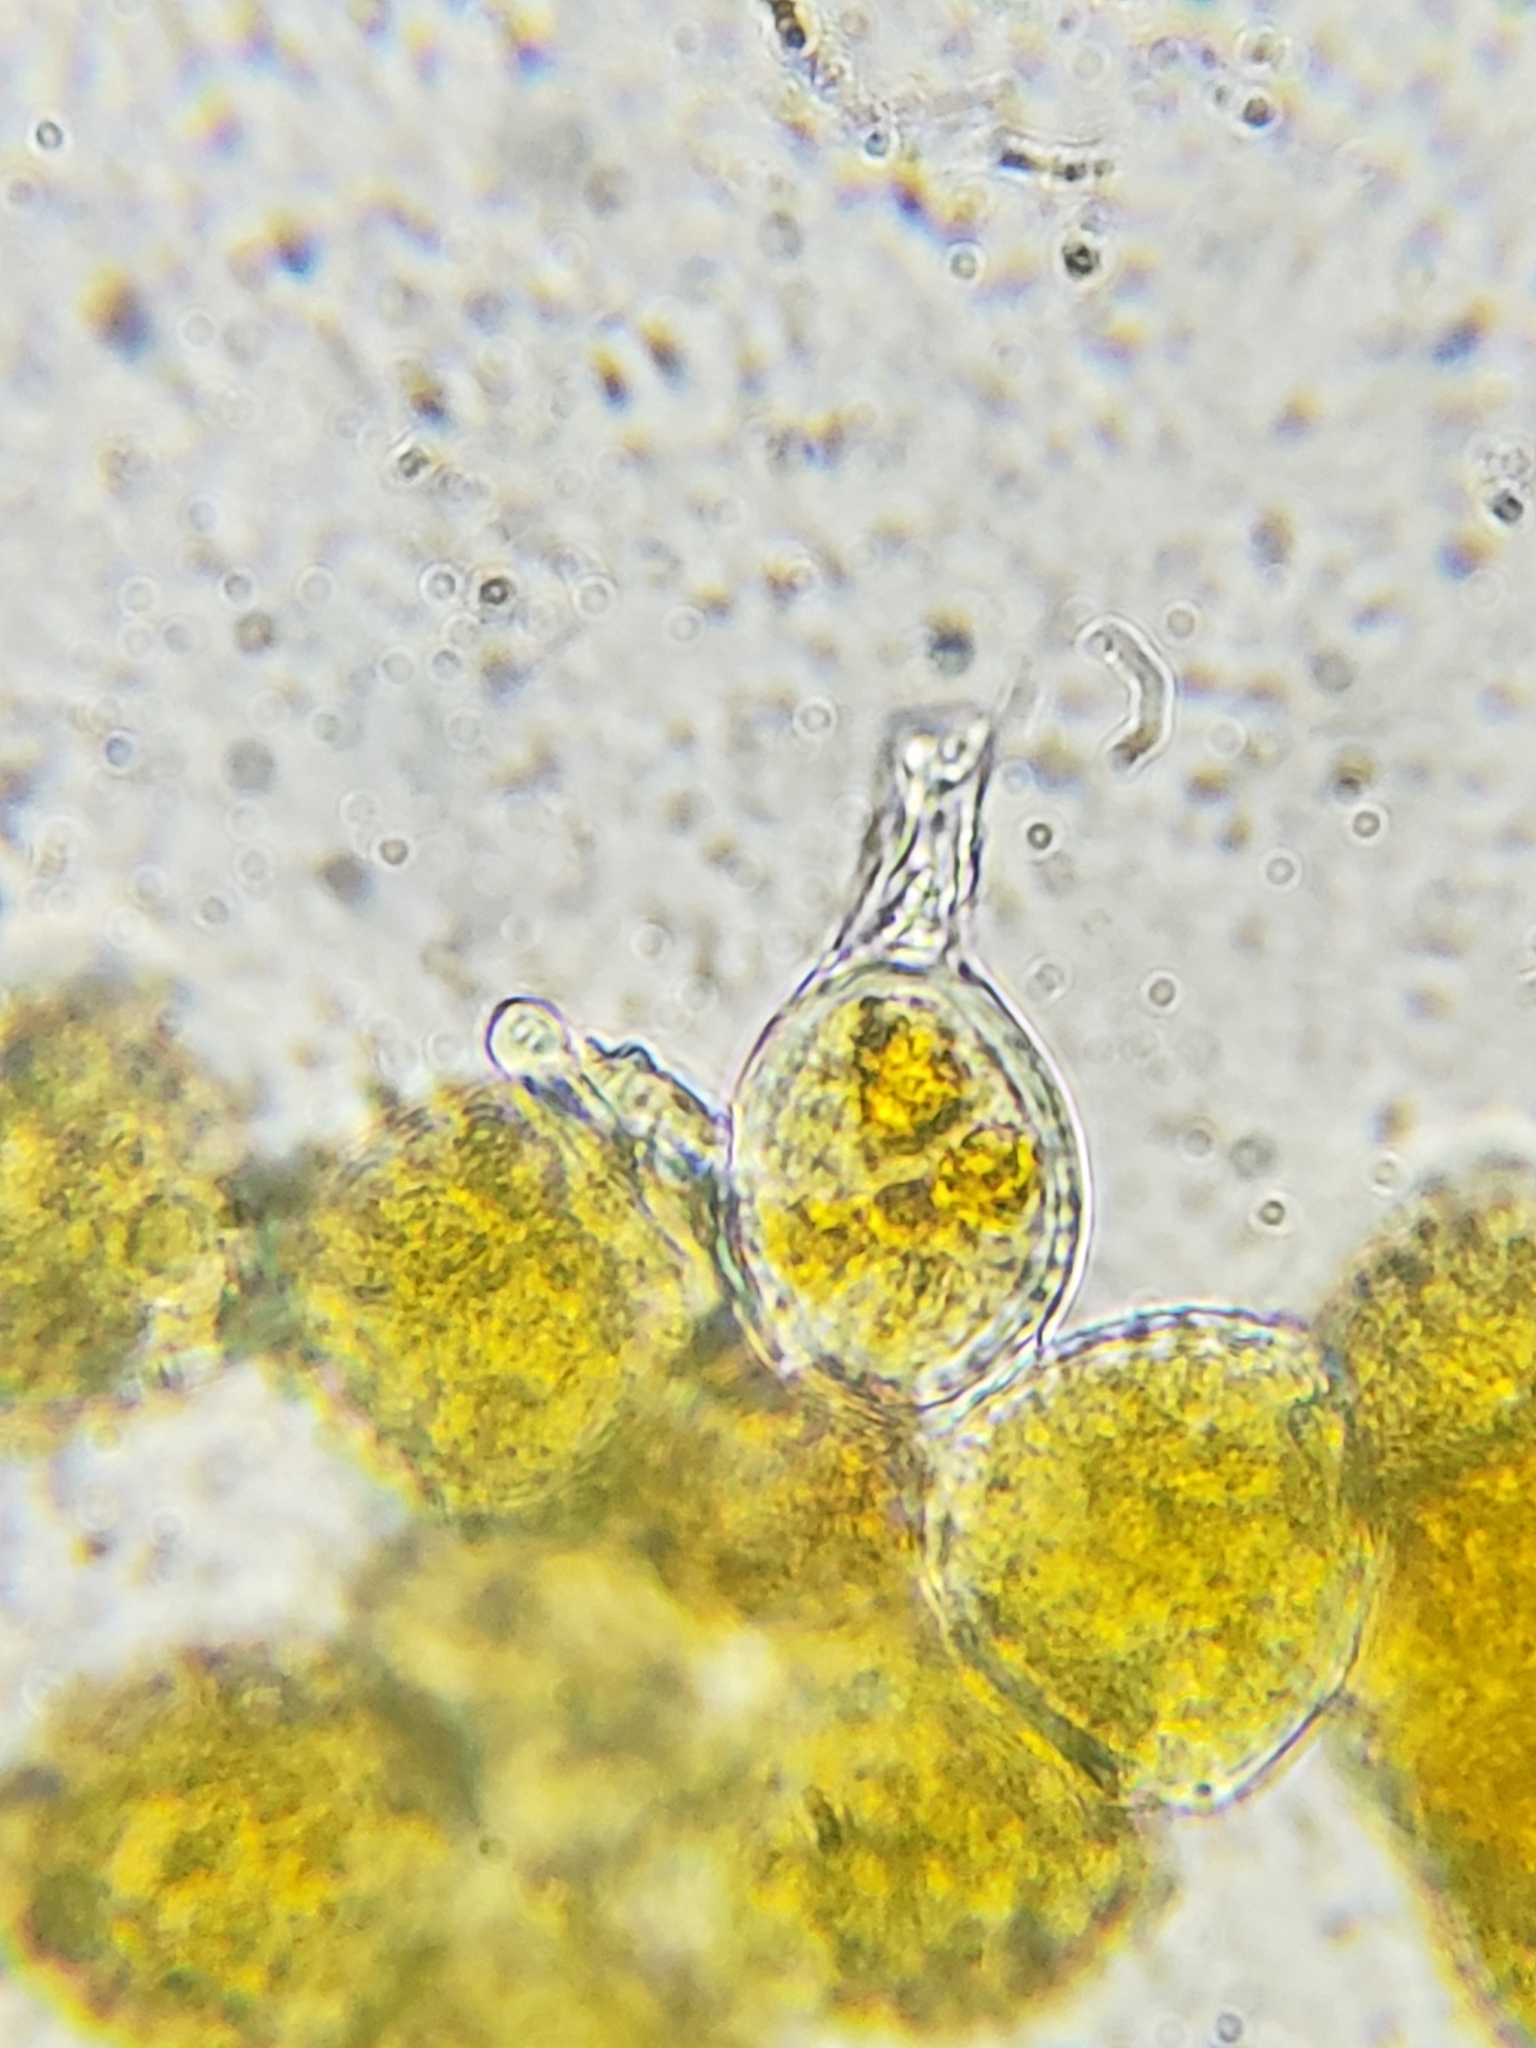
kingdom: Fungi
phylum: Basidiomycota
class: Pucciniomycetes
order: Pucciniales
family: Phragmidiaceae
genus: Kuehneola
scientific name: Kuehneola uredinis
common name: Bramble stem rust
